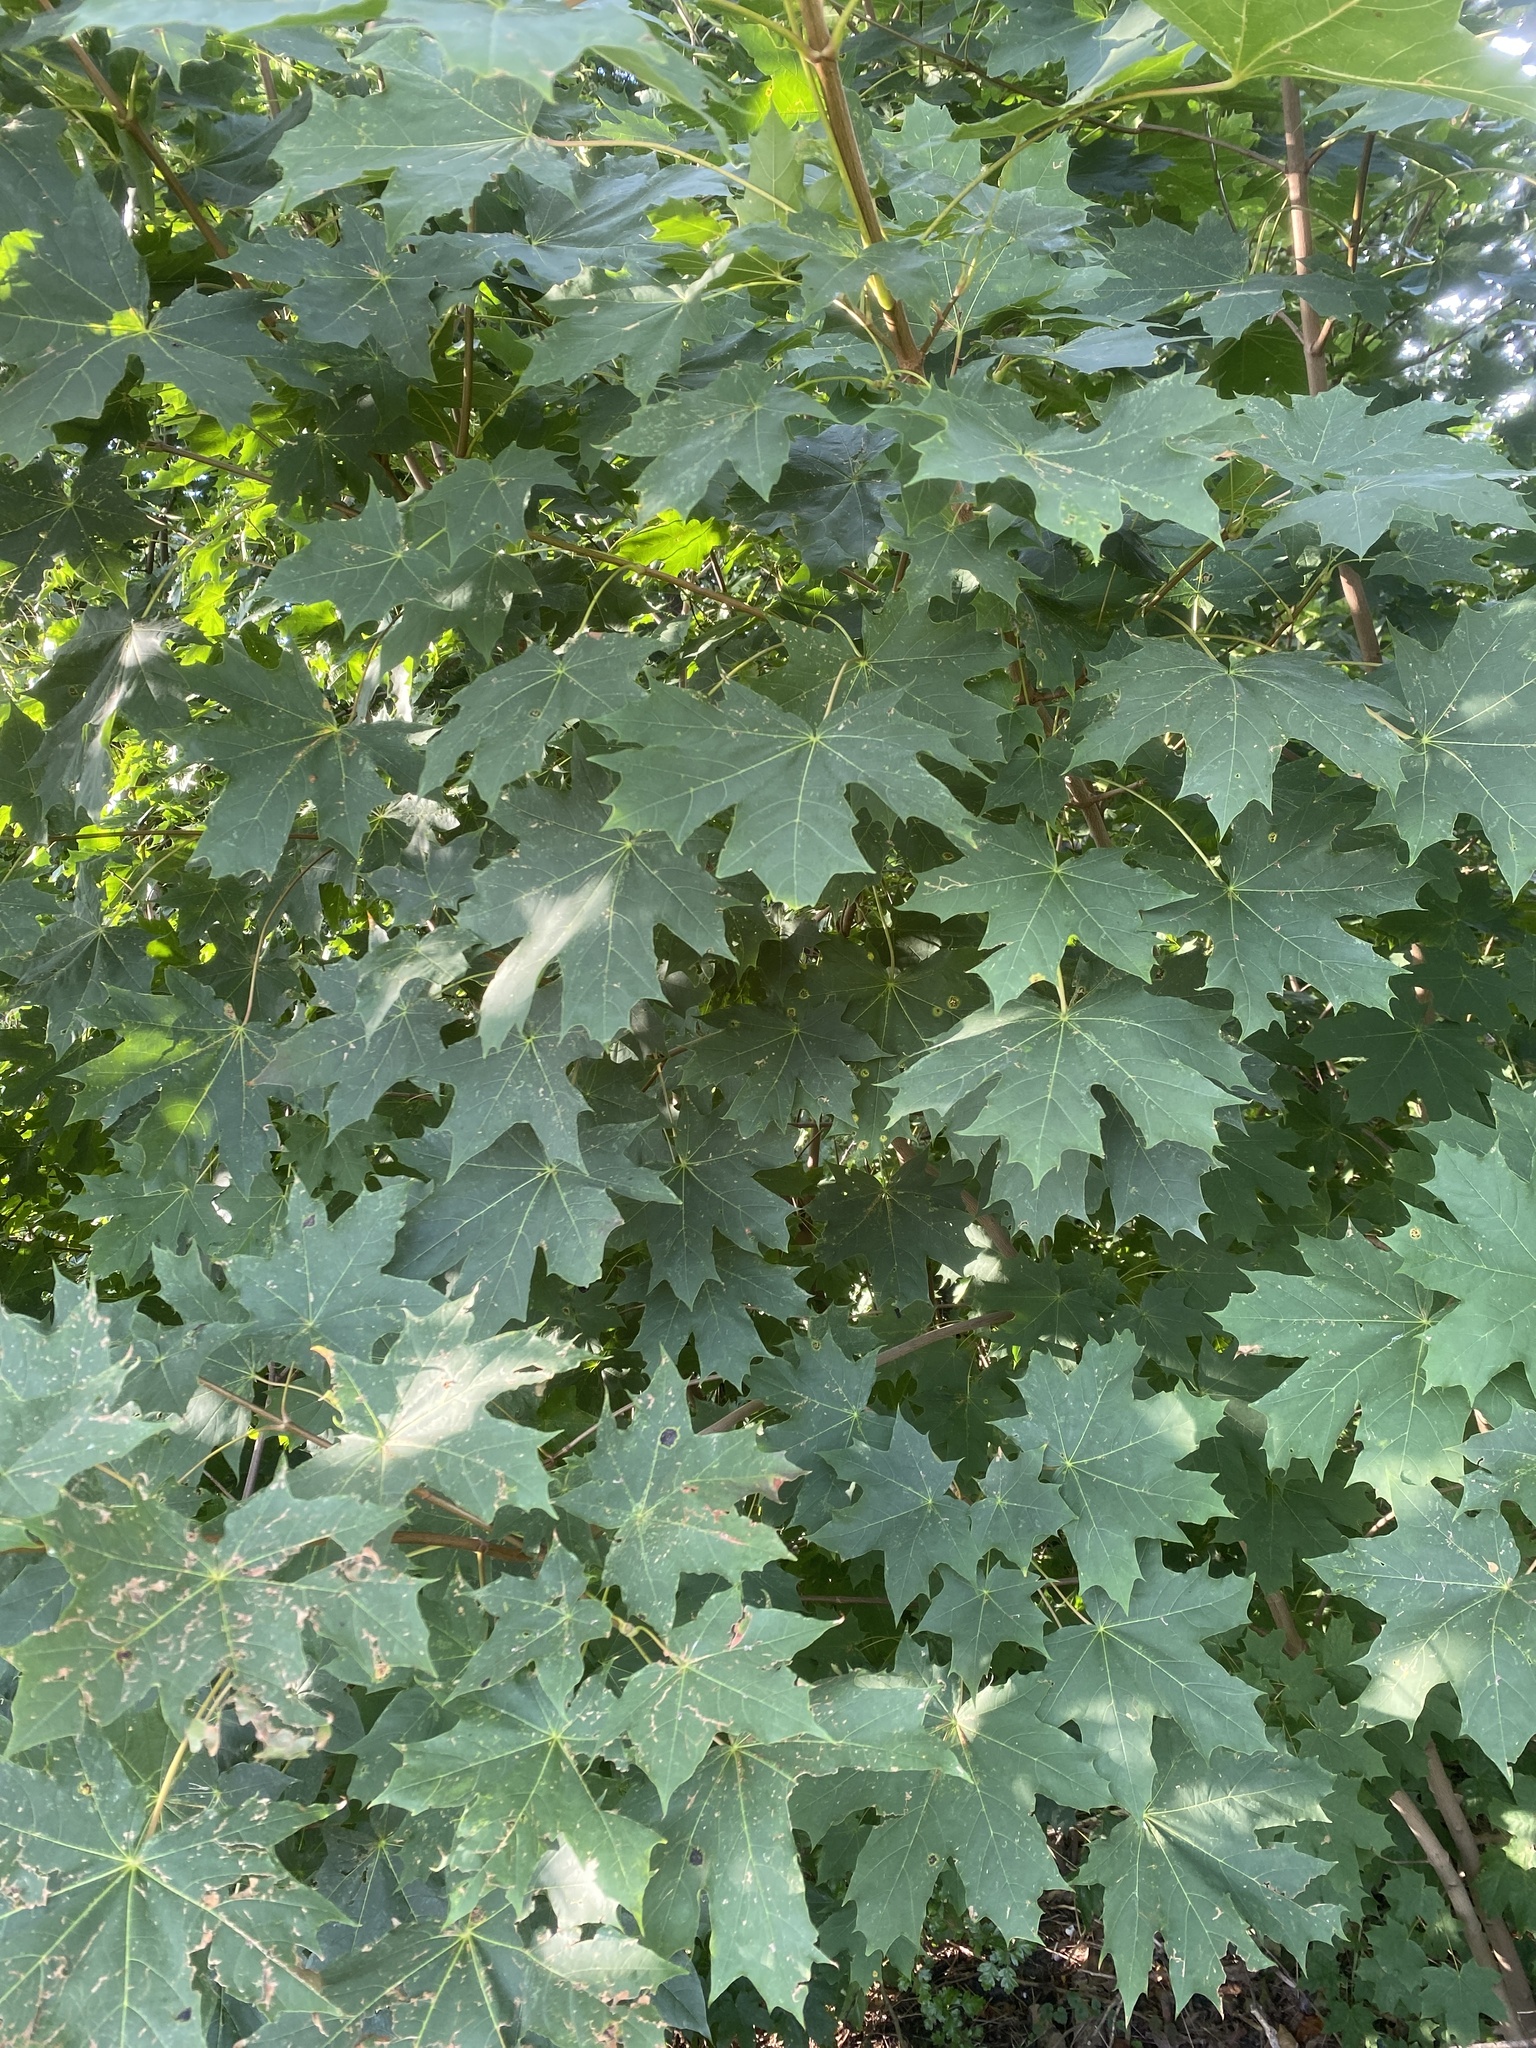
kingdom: Plantae
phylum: Tracheophyta
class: Magnoliopsida
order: Sapindales
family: Sapindaceae
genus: Acer
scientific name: Acer platanoides
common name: Norway maple
